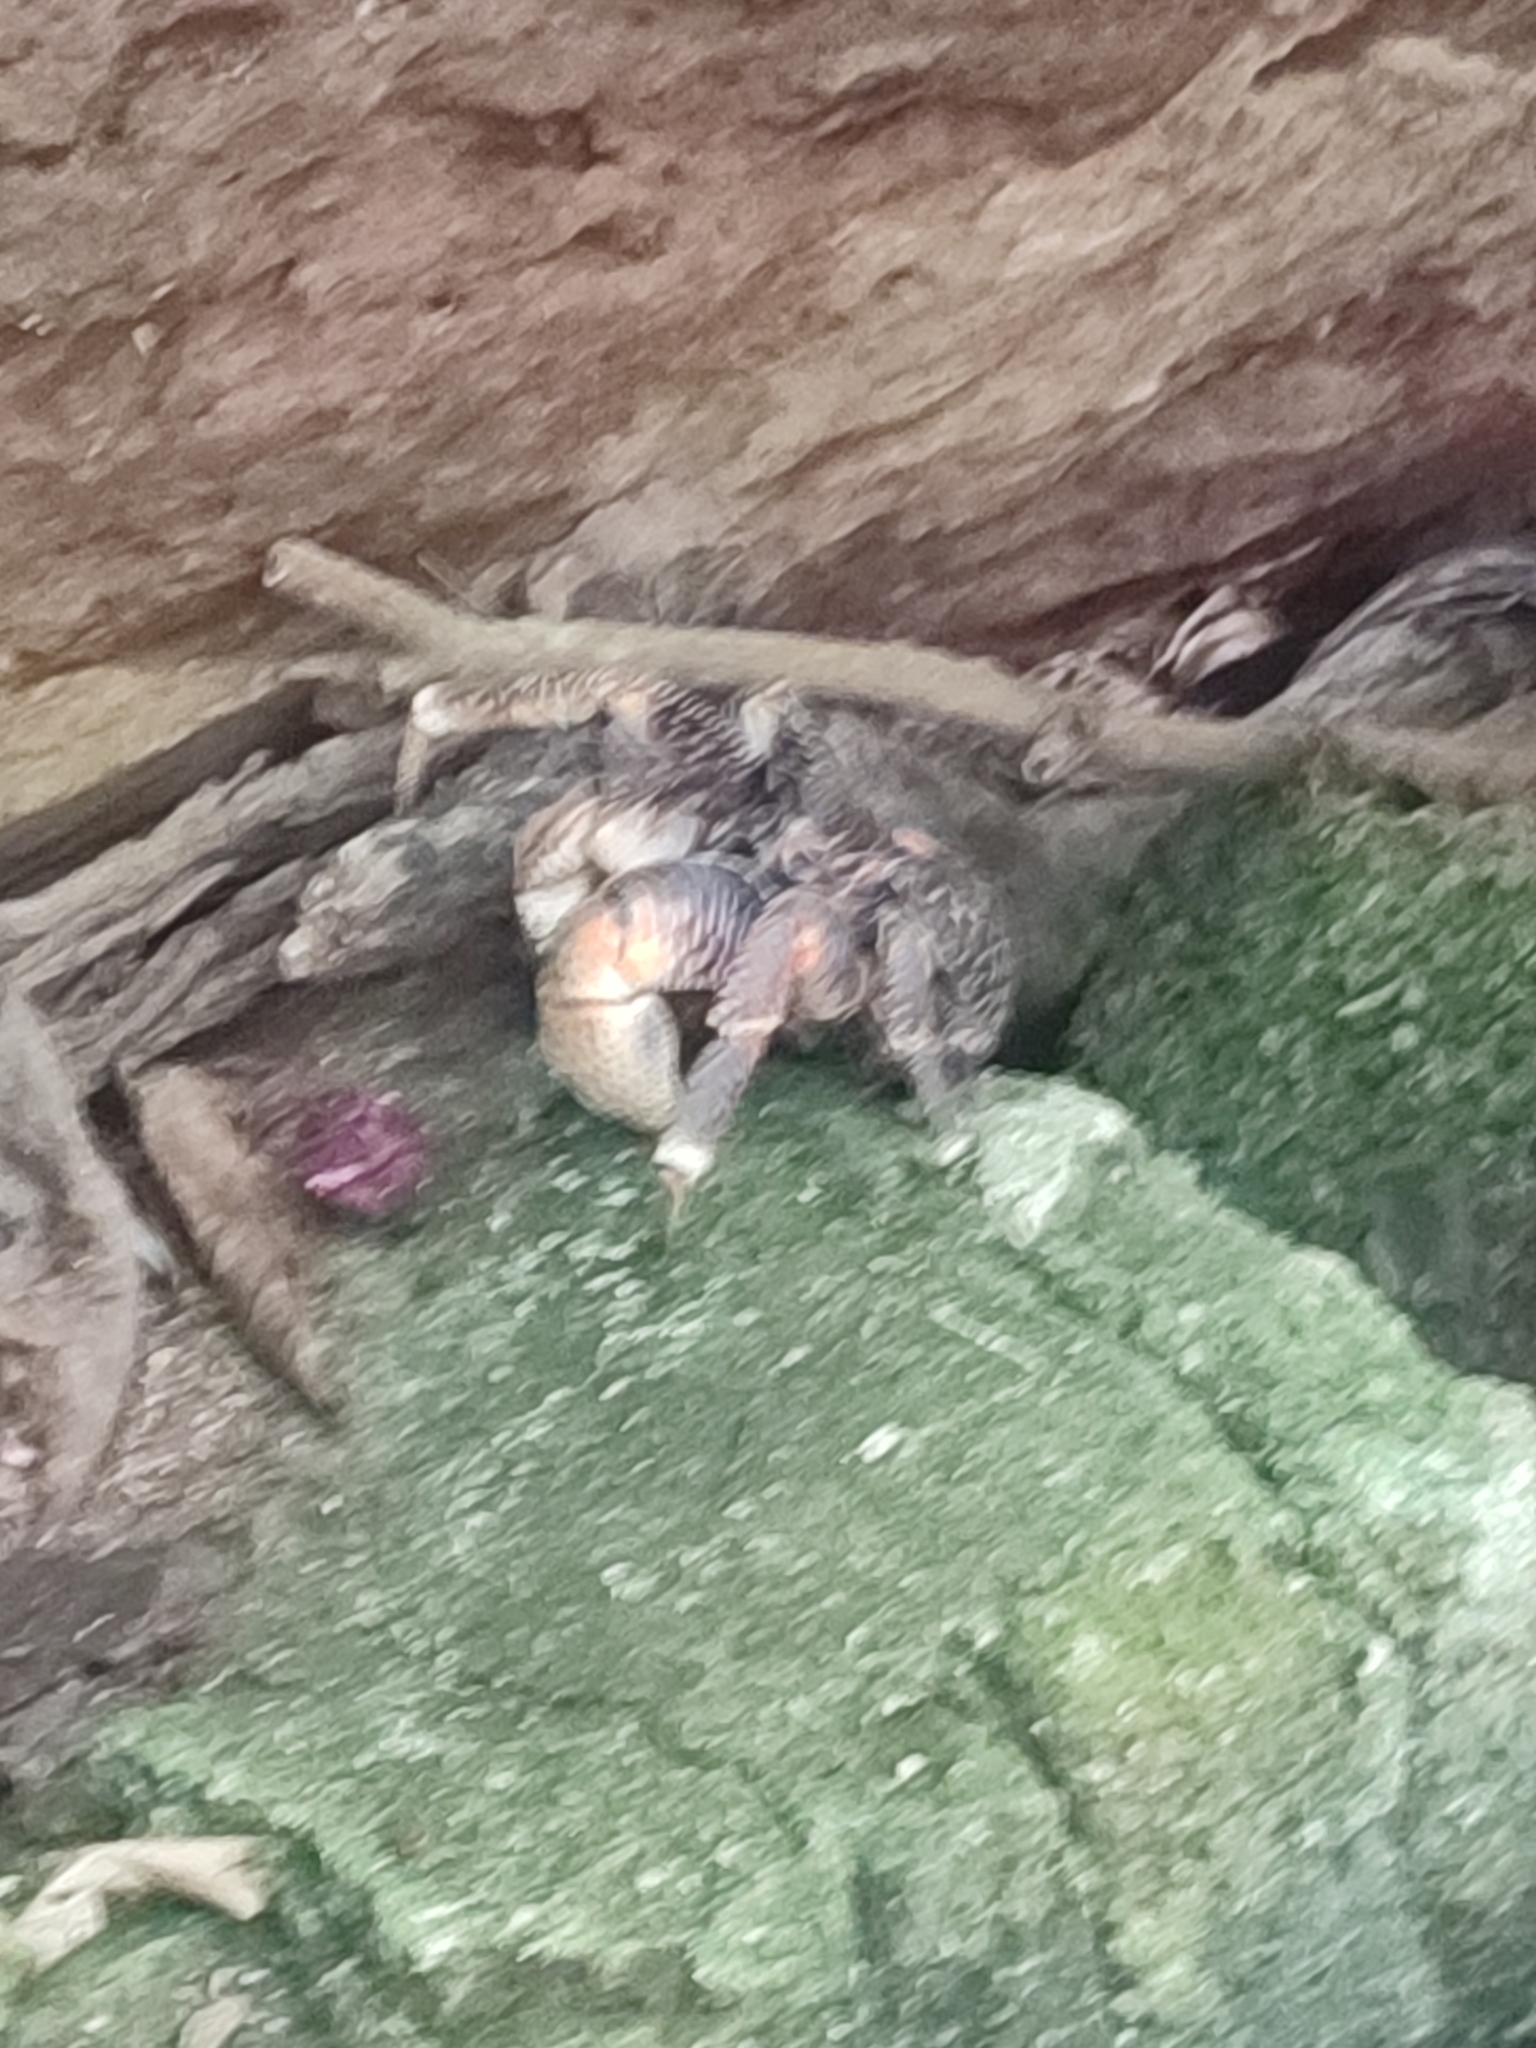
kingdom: Animalia
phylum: Arthropoda
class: Malacostraca
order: Decapoda
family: Coenobitidae
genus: Birgus
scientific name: Birgus latro
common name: Coconut crab
